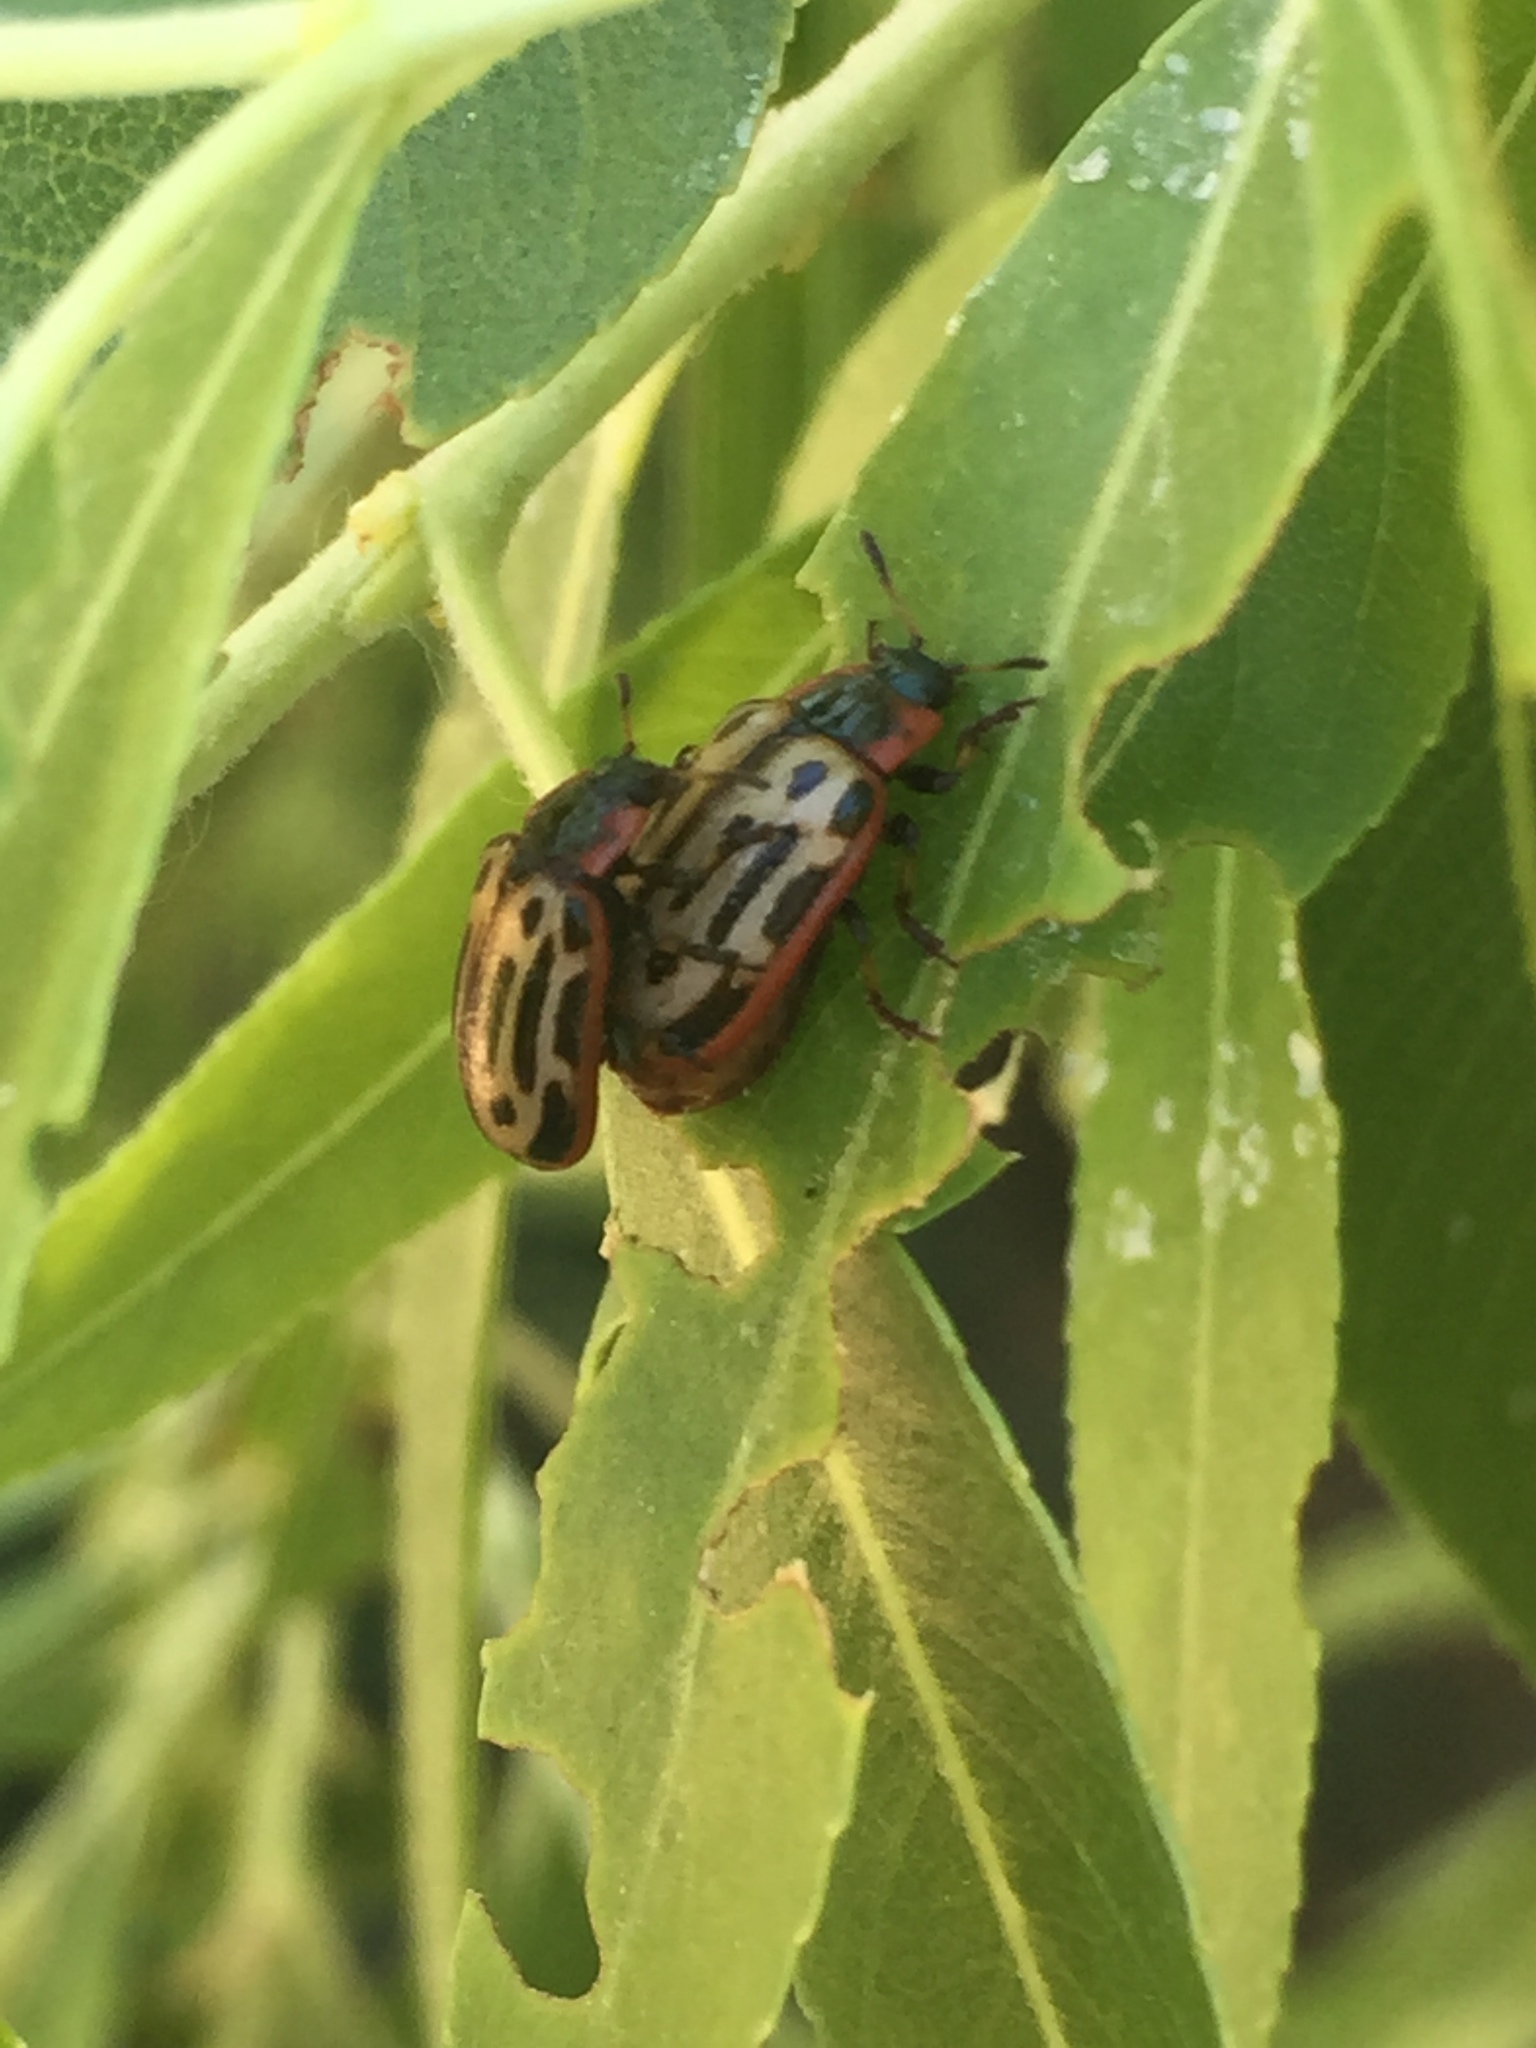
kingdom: Animalia
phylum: Arthropoda
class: Insecta
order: Coleoptera
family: Chrysomelidae
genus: Aethiopocassis
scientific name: Aethiopocassis scripta
